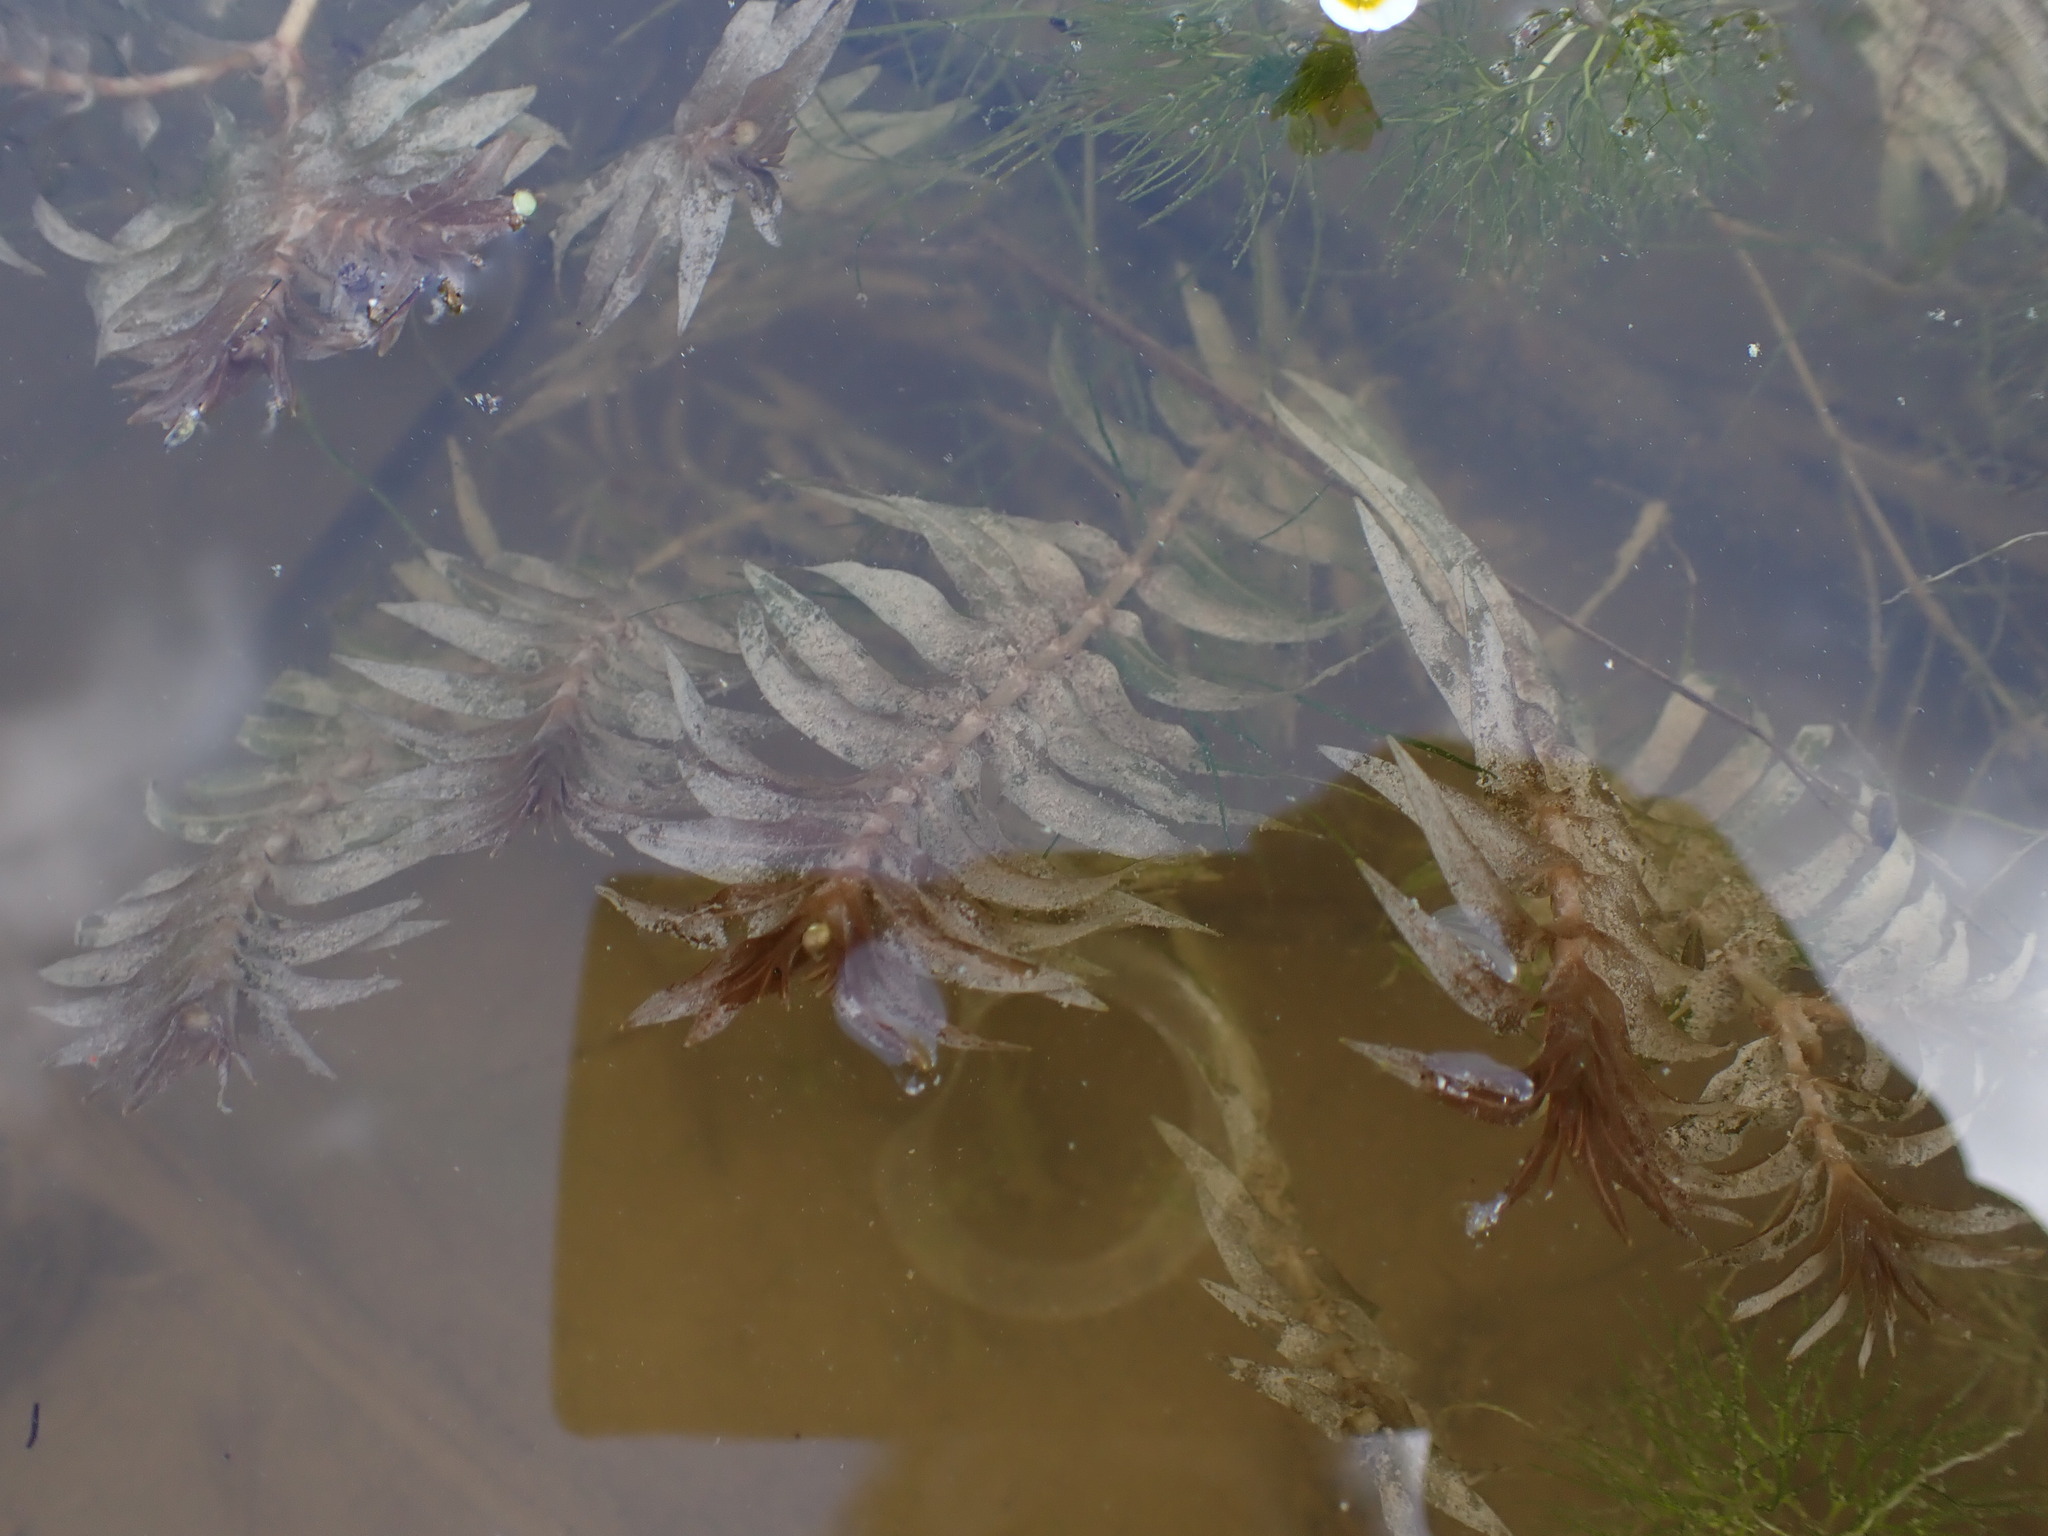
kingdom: Plantae
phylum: Tracheophyta
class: Liliopsida
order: Alismatales
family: Potamogetonaceae
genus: Groenlandia
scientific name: Groenlandia densa
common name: Opposite-leaved pondweed
